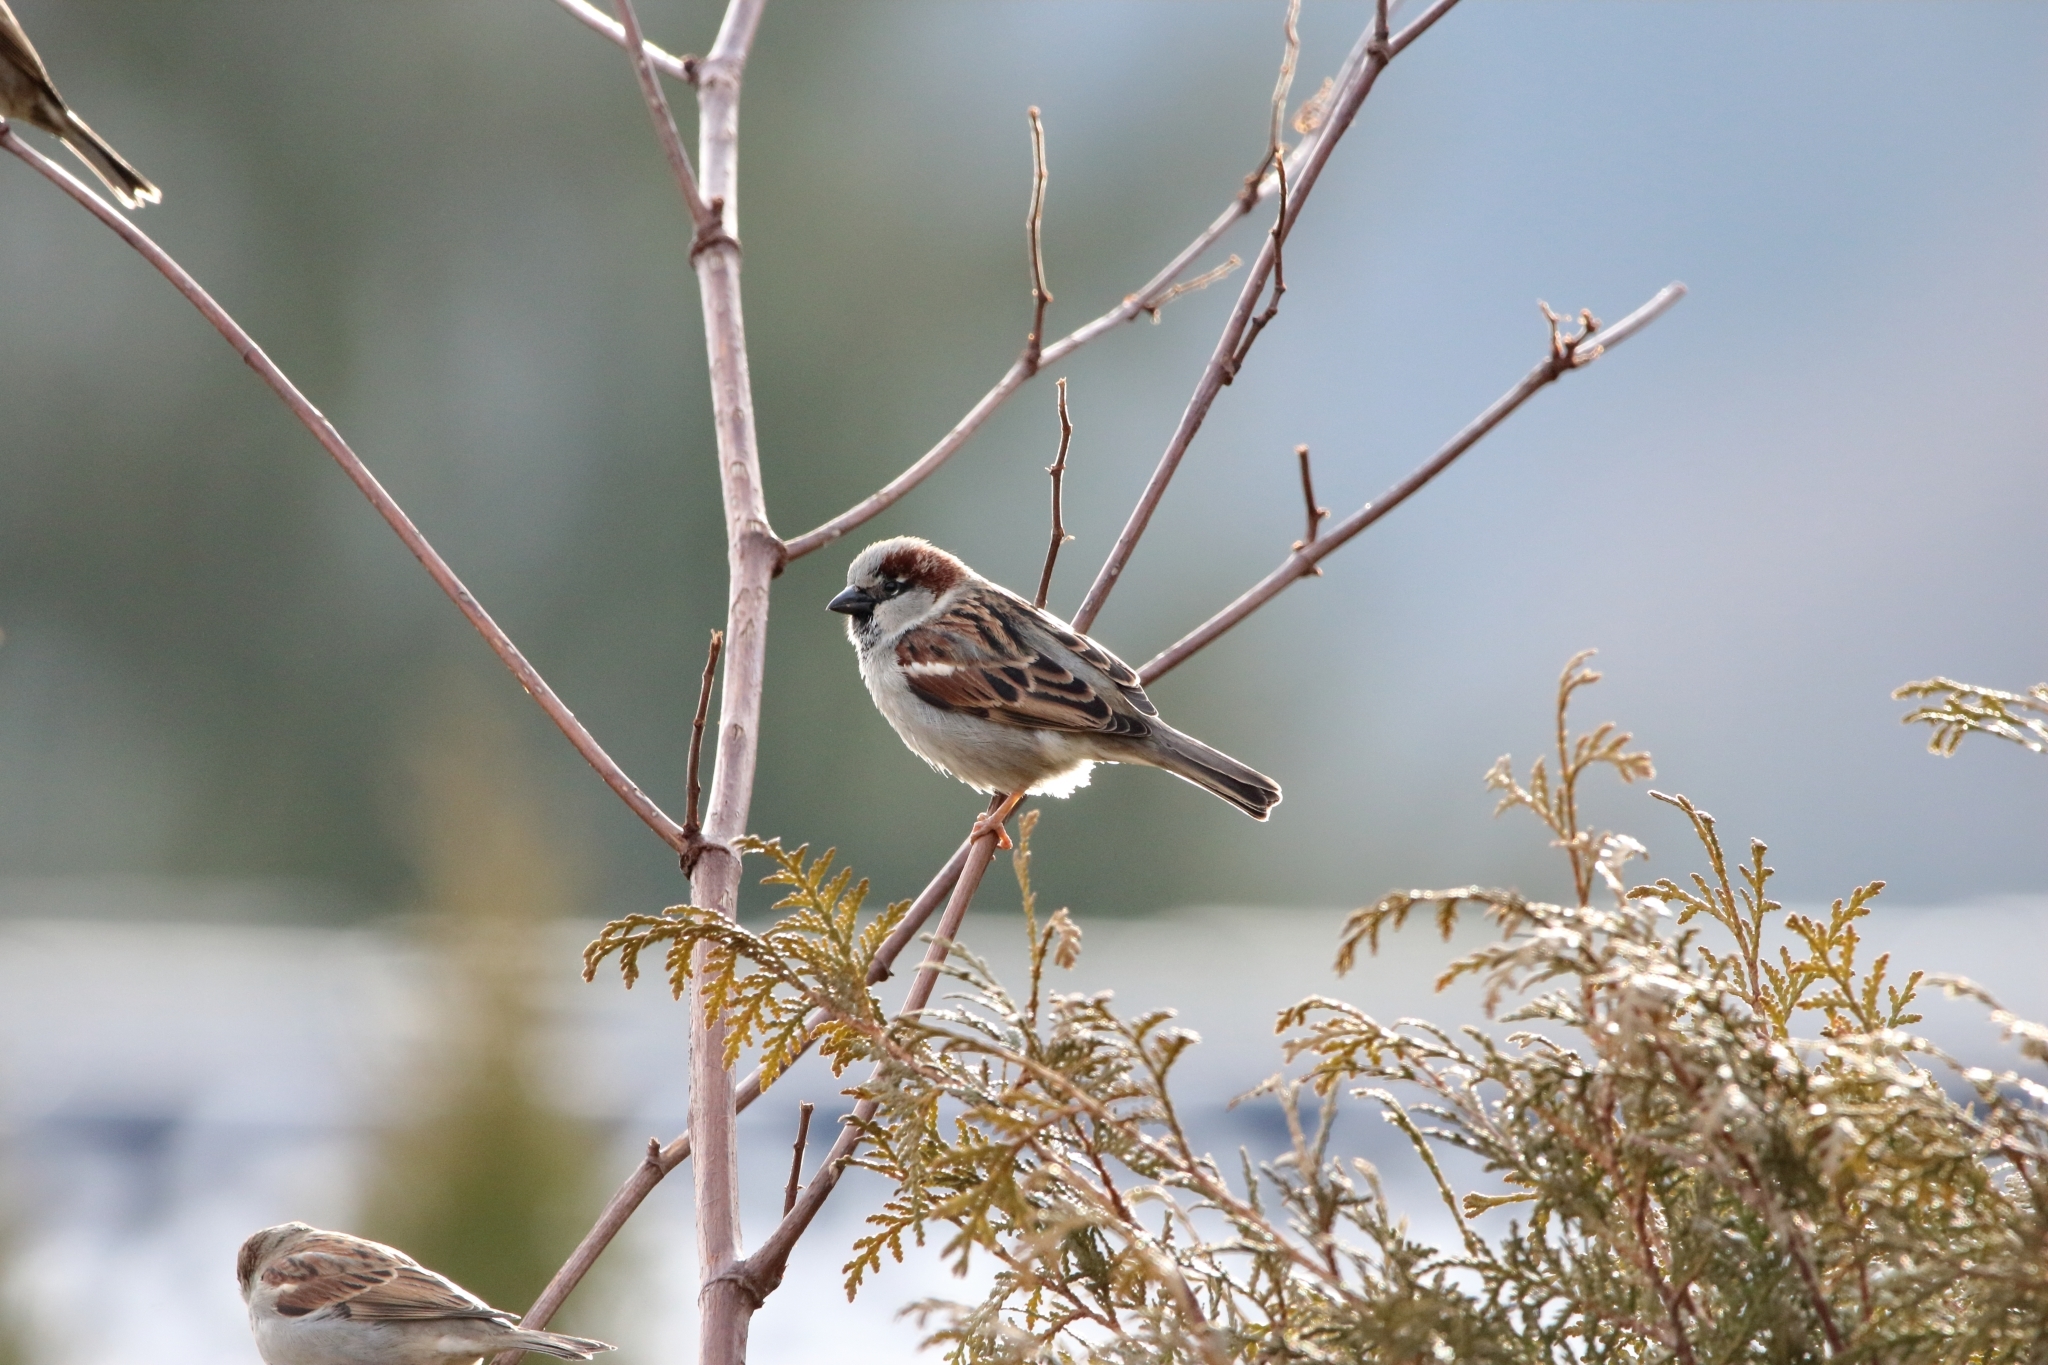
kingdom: Animalia
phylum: Chordata
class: Aves
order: Passeriformes
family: Passeridae
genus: Passer
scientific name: Passer domesticus
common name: House sparrow
